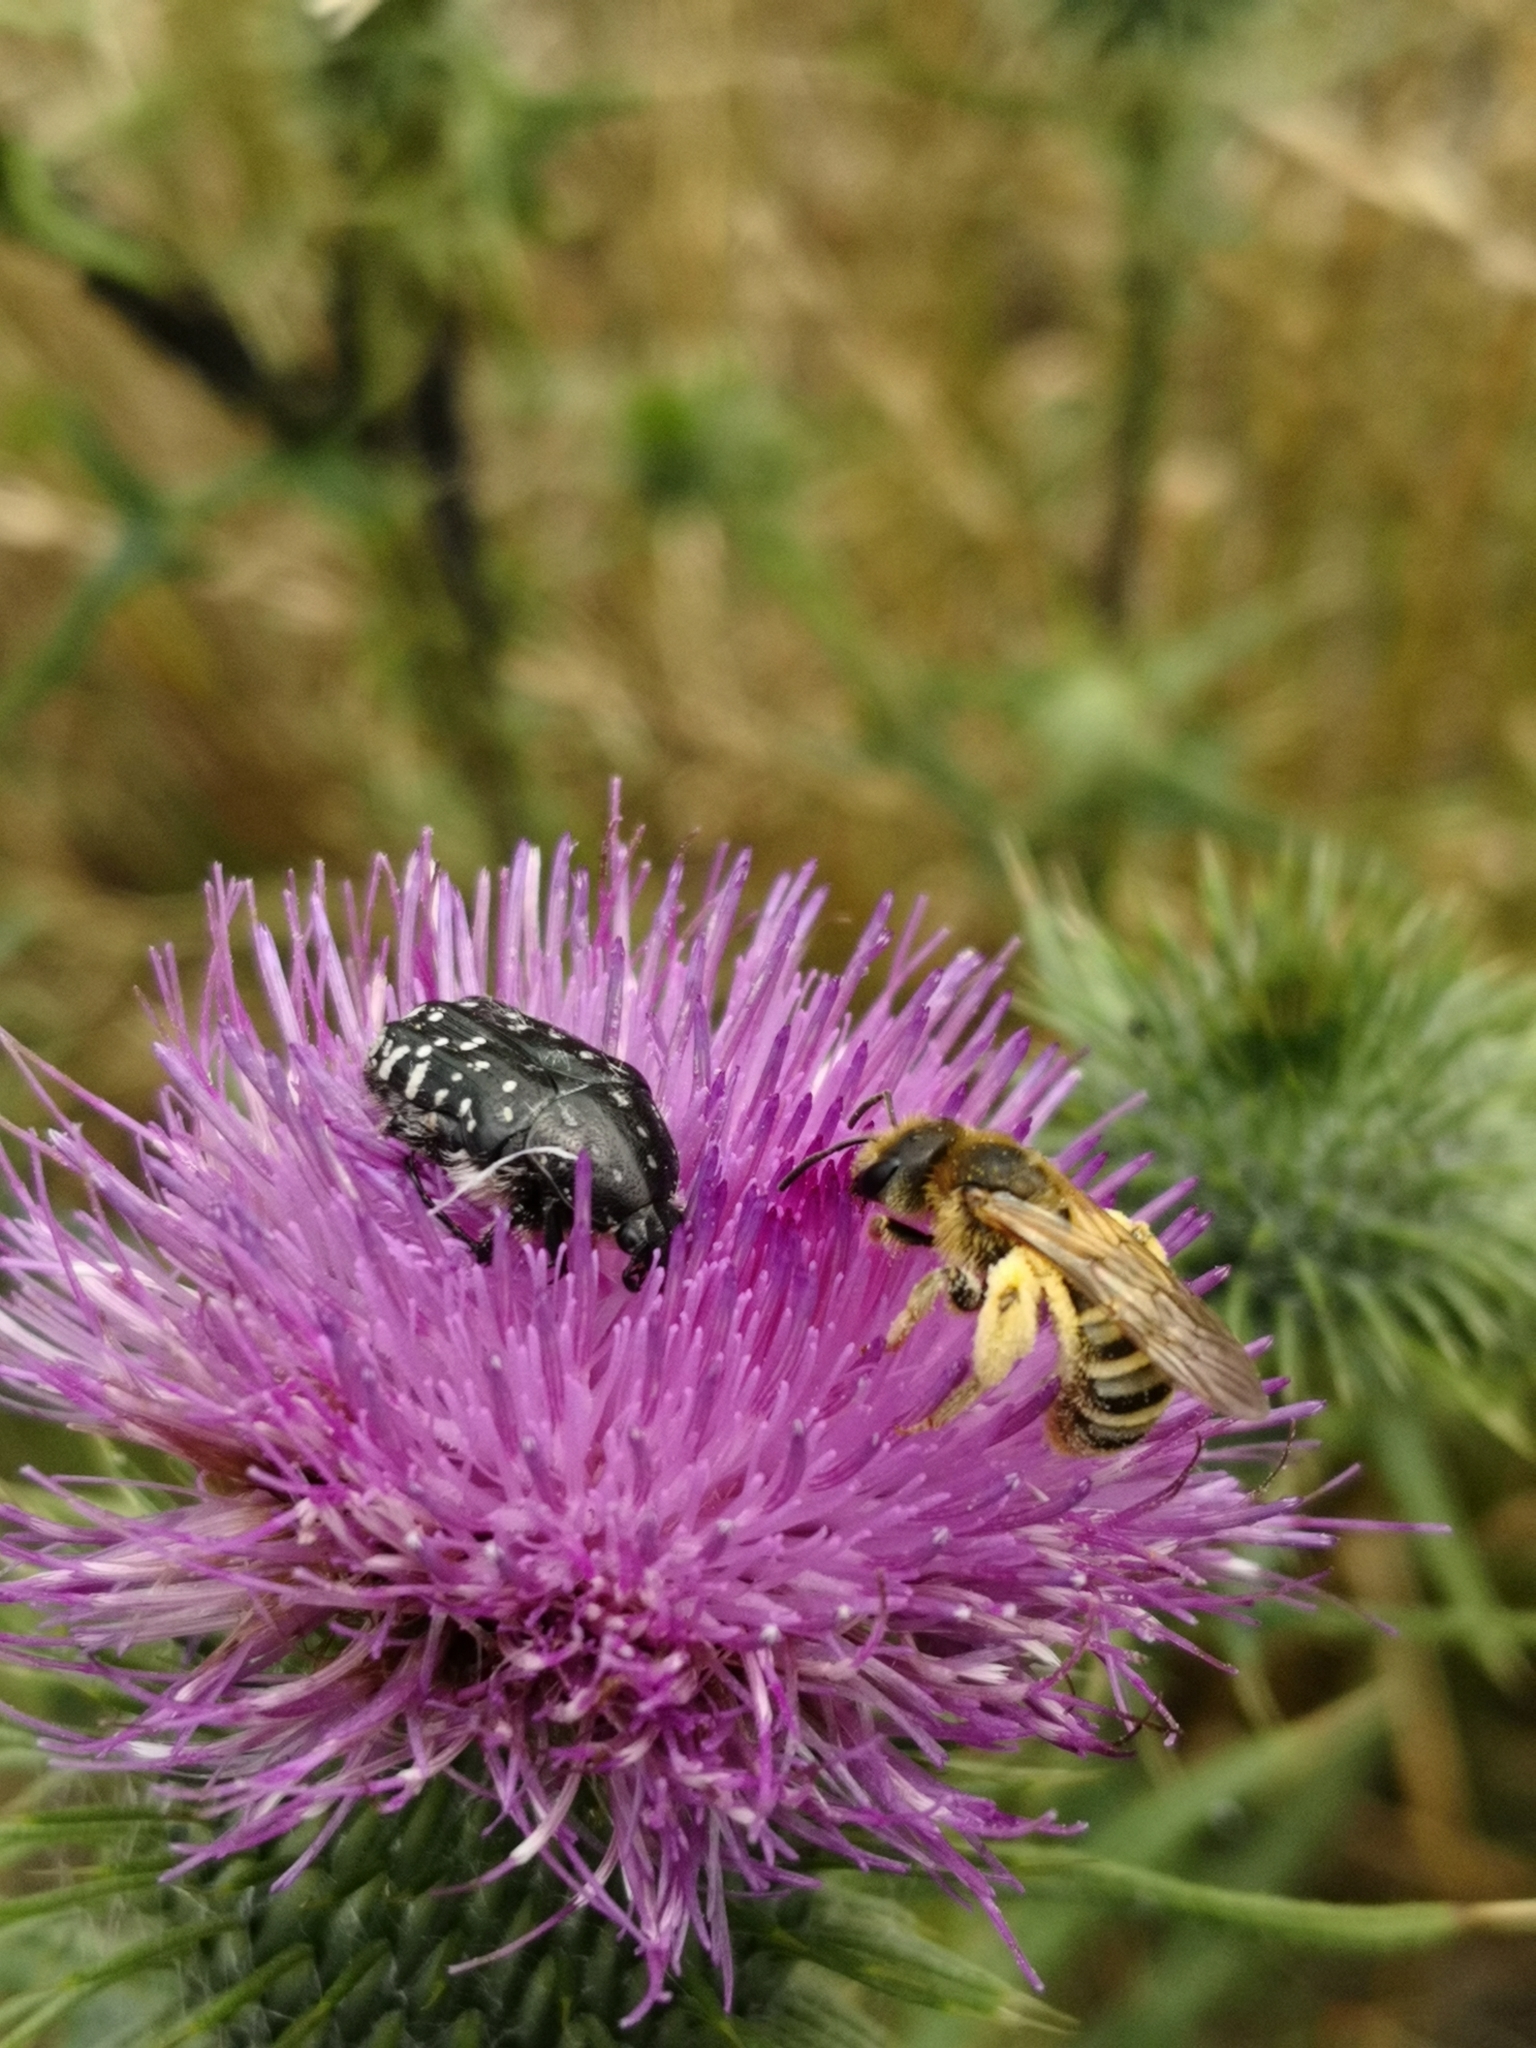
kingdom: Animalia
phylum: Arthropoda
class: Insecta
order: Hymenoptera
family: Halictidae
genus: Halictus
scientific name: Halictus scabiosae
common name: Great banded furrow bee
